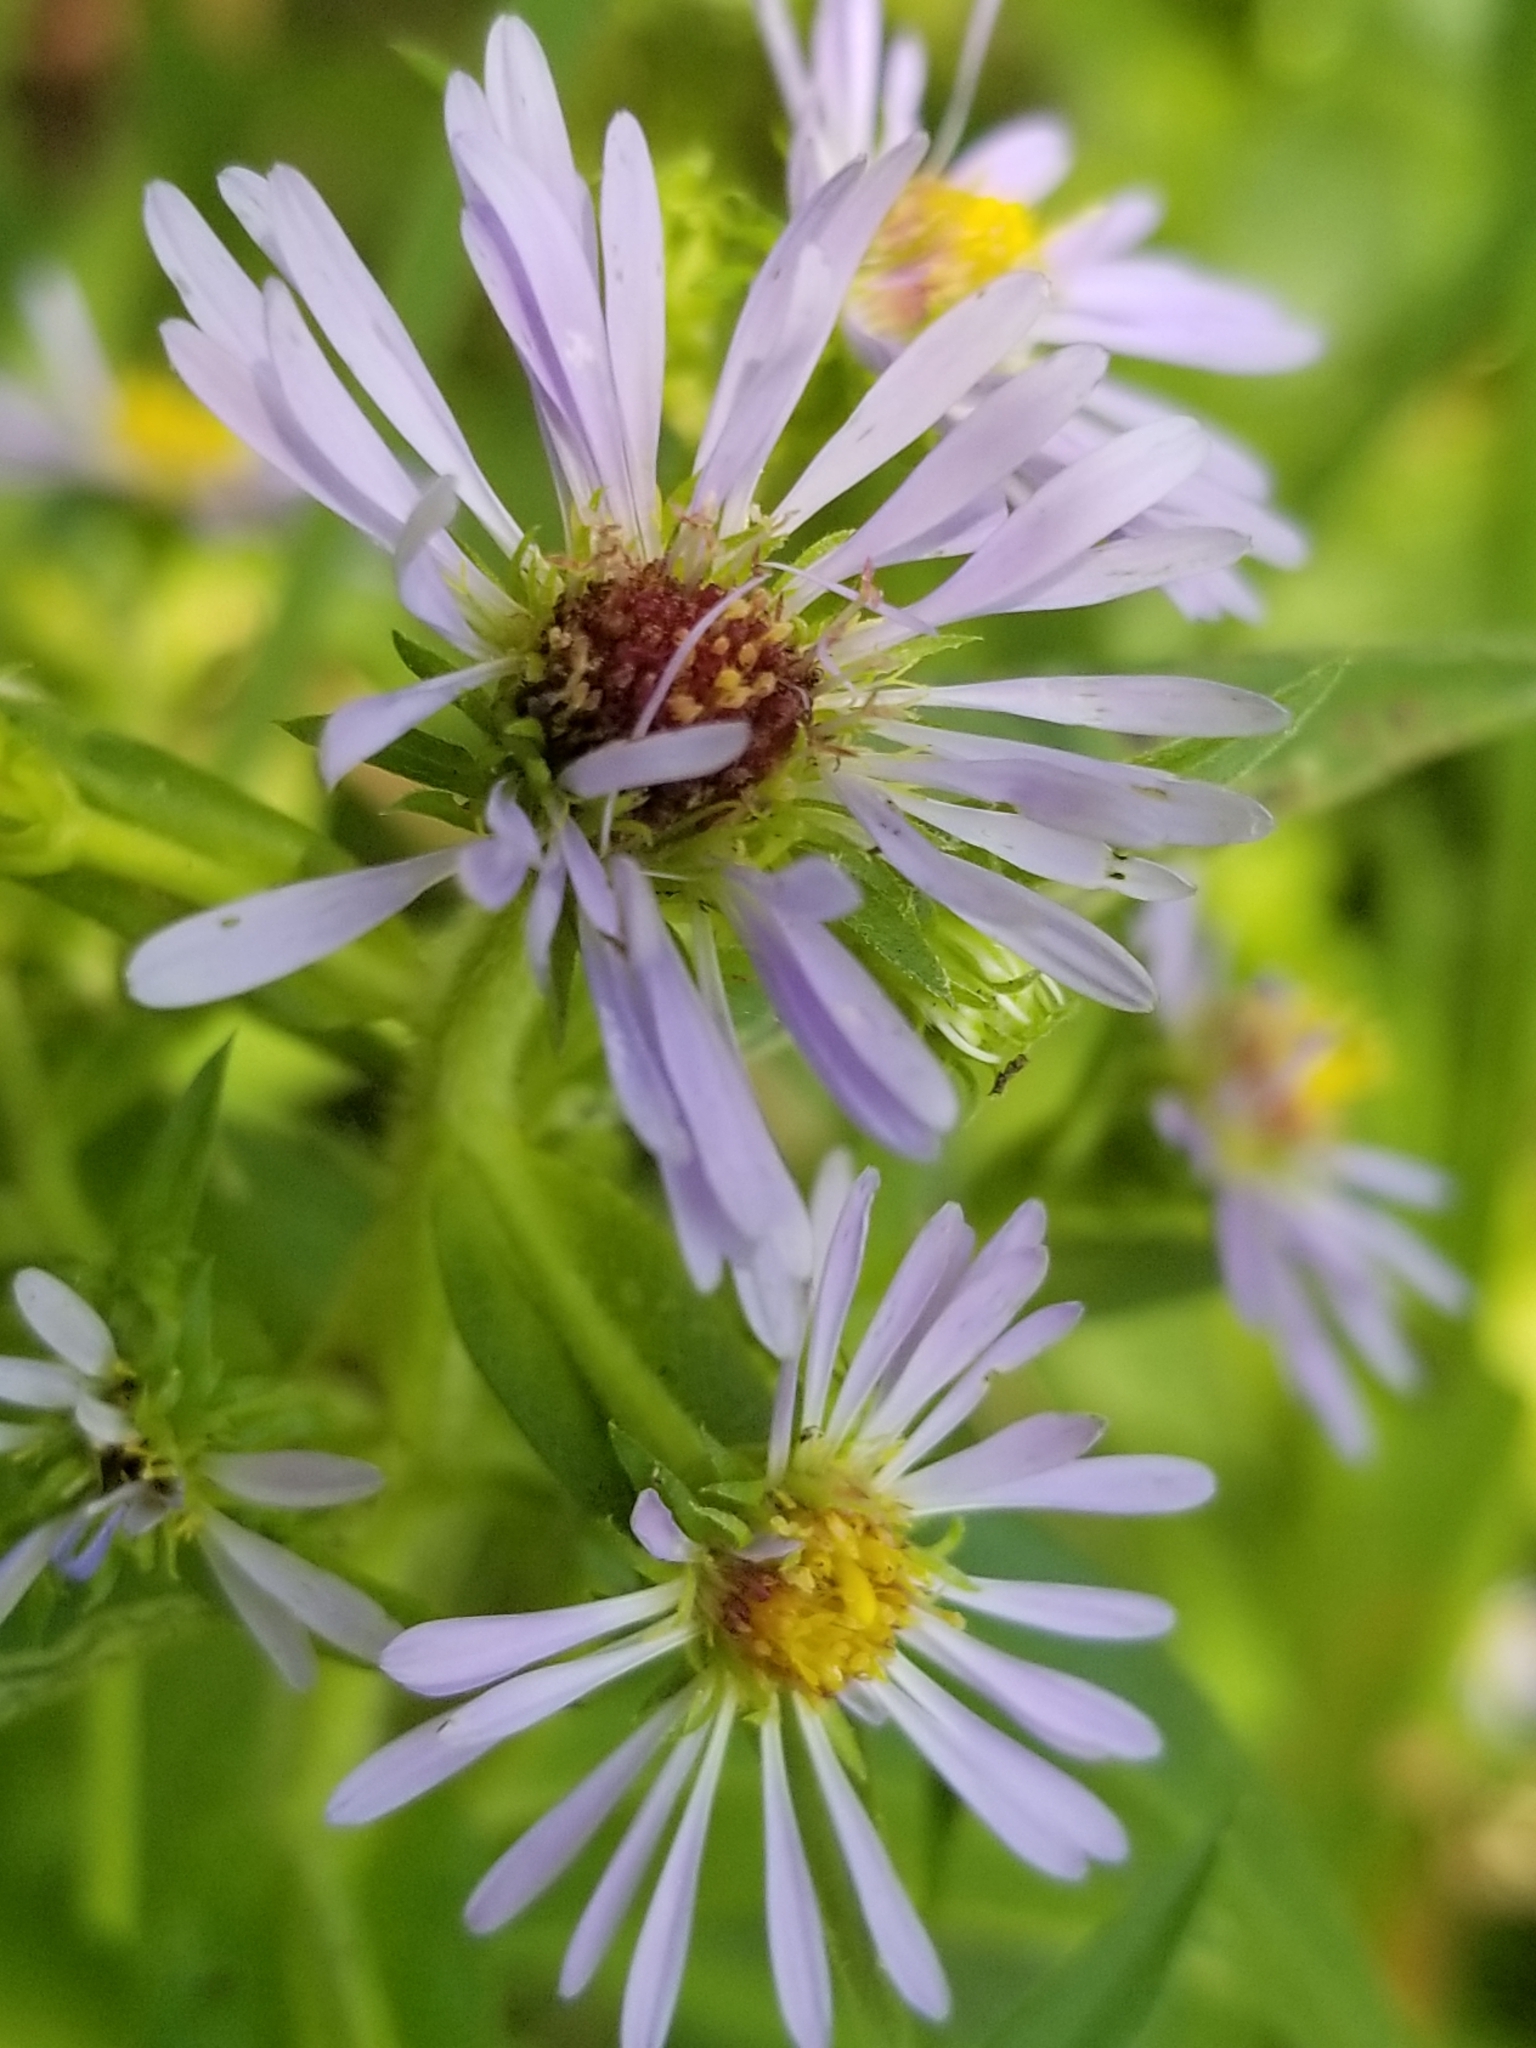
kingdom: Plantae
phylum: Tracheophyta
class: Magnoliopsida
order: Asterales
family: Asteraceae
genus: Symphyotrichum
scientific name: Symphyotrichum puniceum
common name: Bog aster
